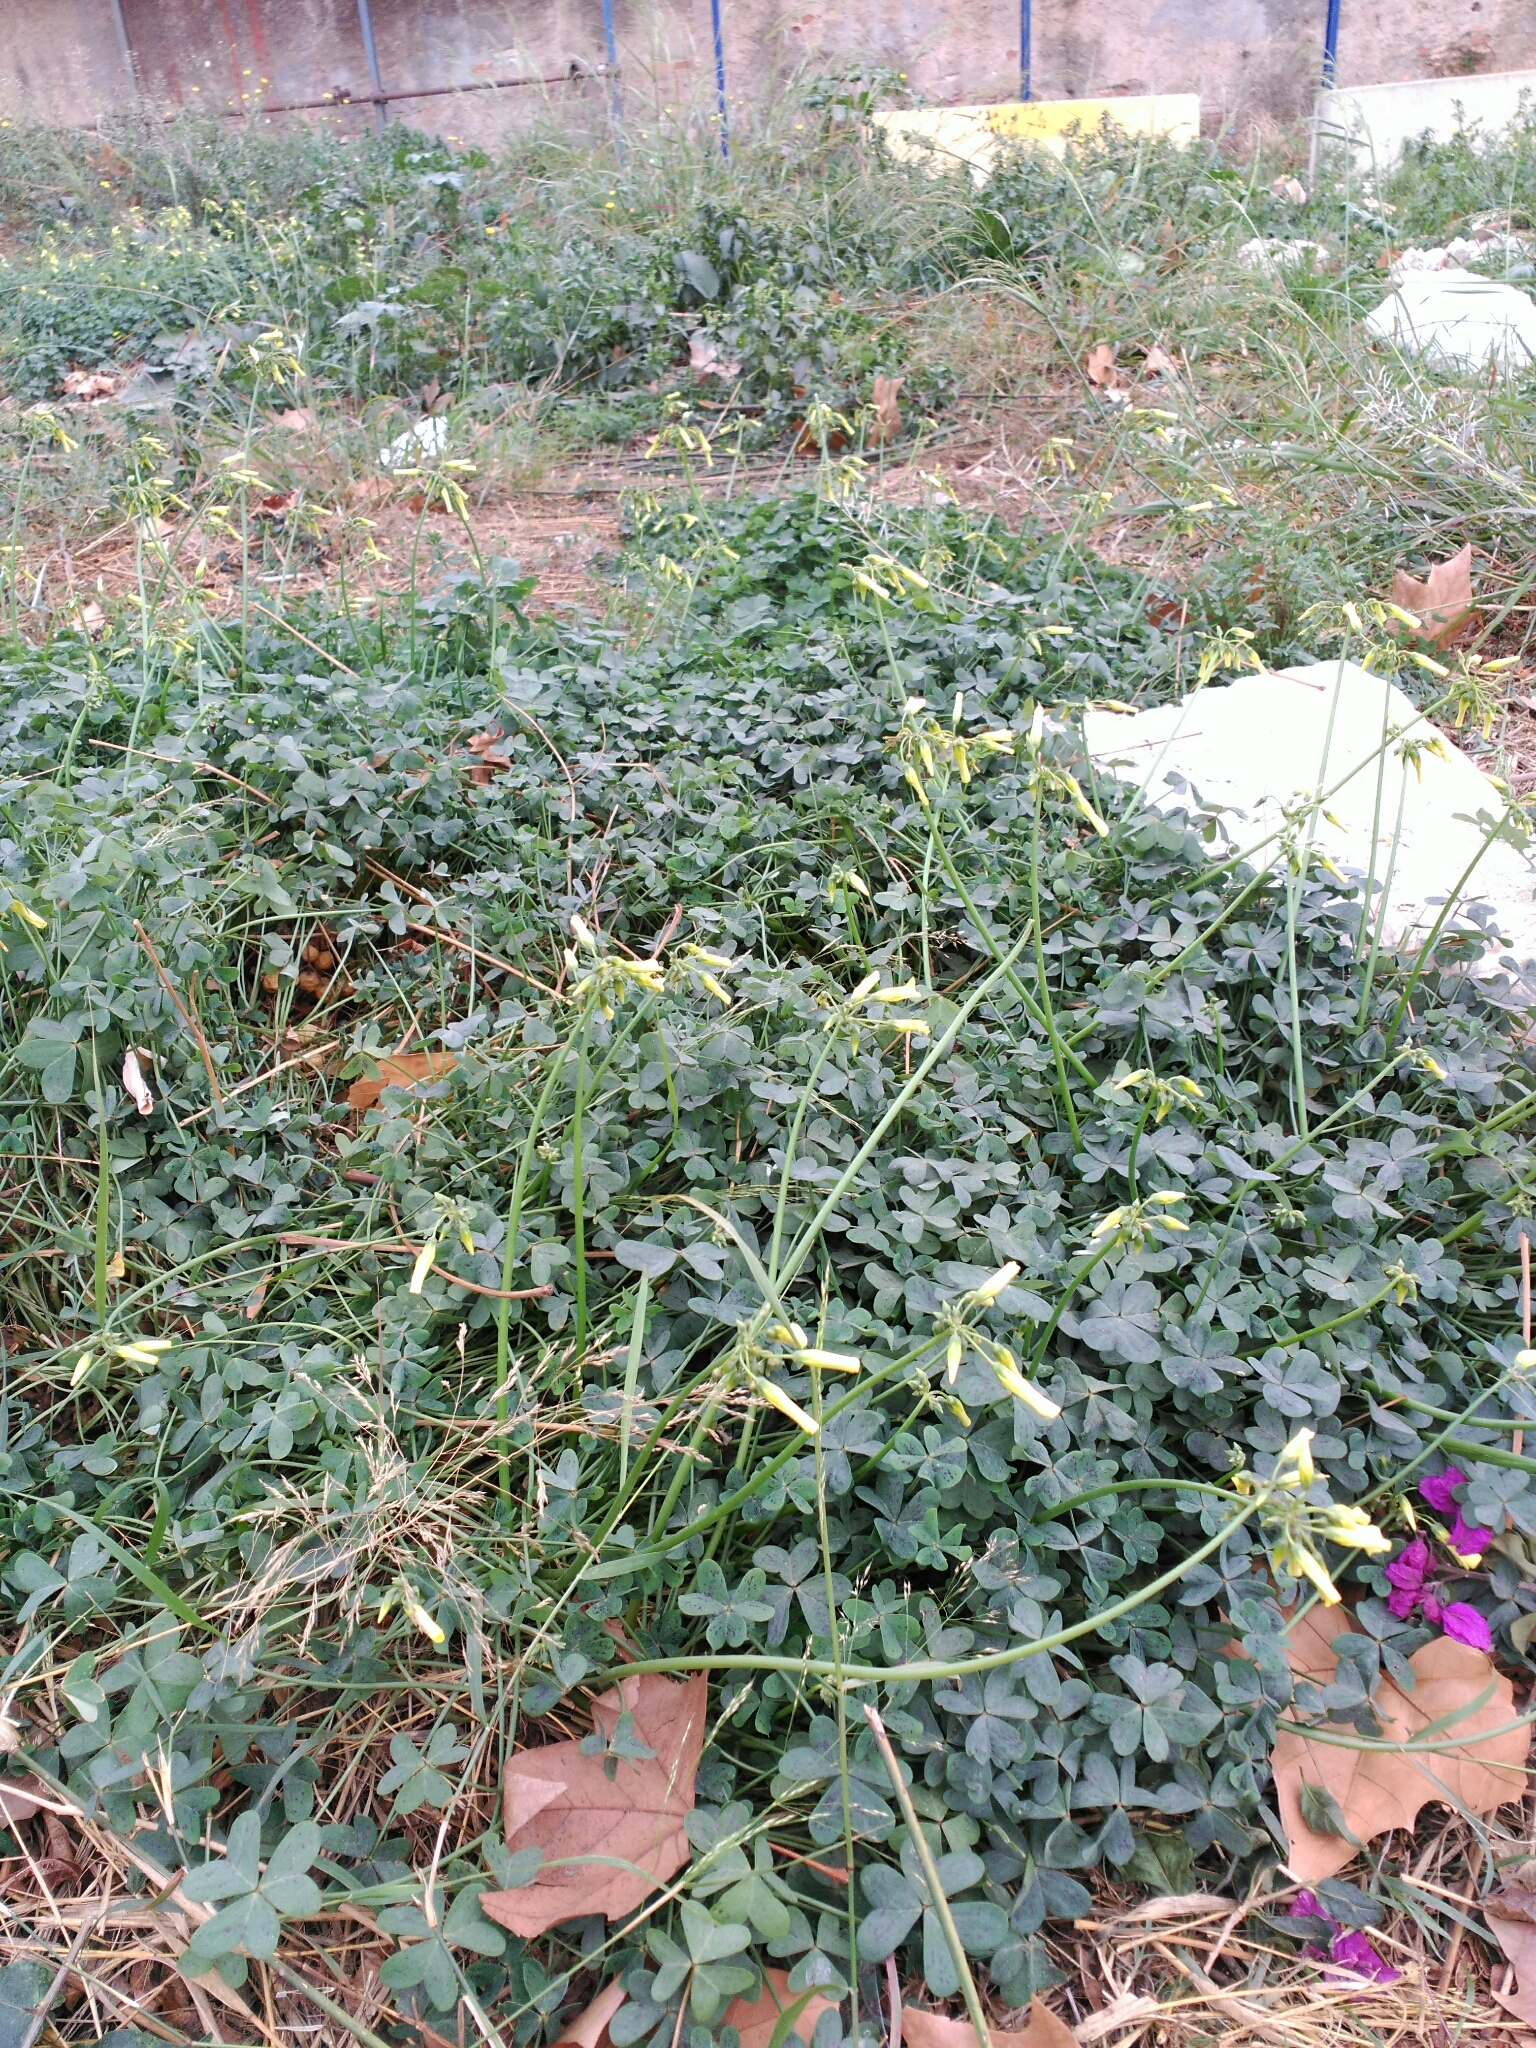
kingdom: Plantae
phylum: Tracheophyta
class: Magnoliopsida
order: Oxalidales
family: Oxalidaceae
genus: Oxalis
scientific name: Oxalis pes-caprae
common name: Bermuda-buttercup
